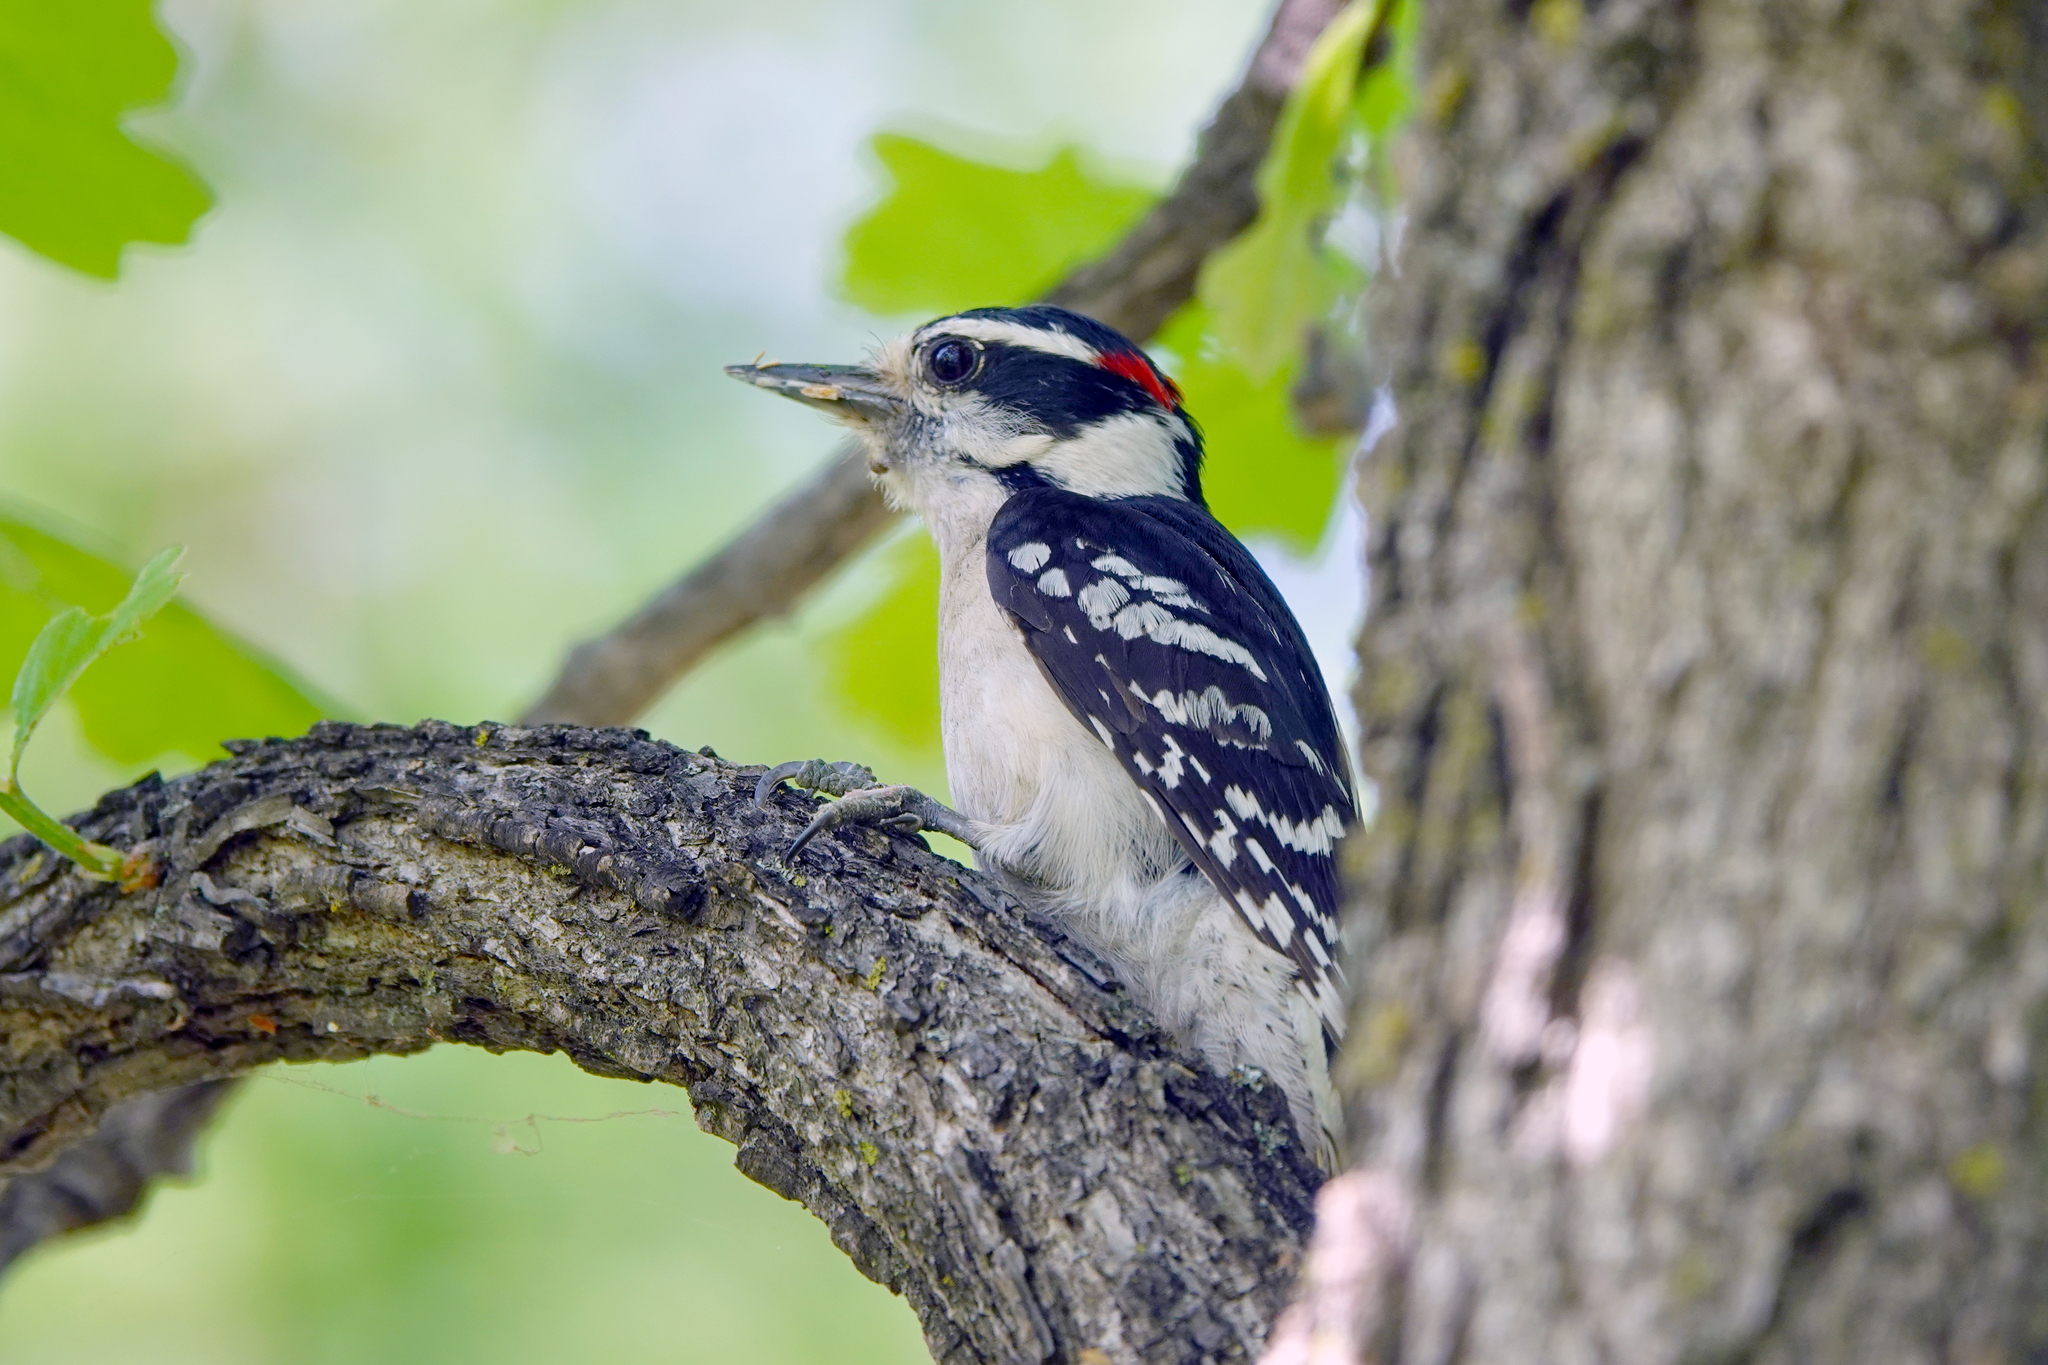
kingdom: Animalia
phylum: Chordata
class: Aves
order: Piciformes
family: Picidae
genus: Dryobates
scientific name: Dryobates pubescens
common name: Downy woodpecker
